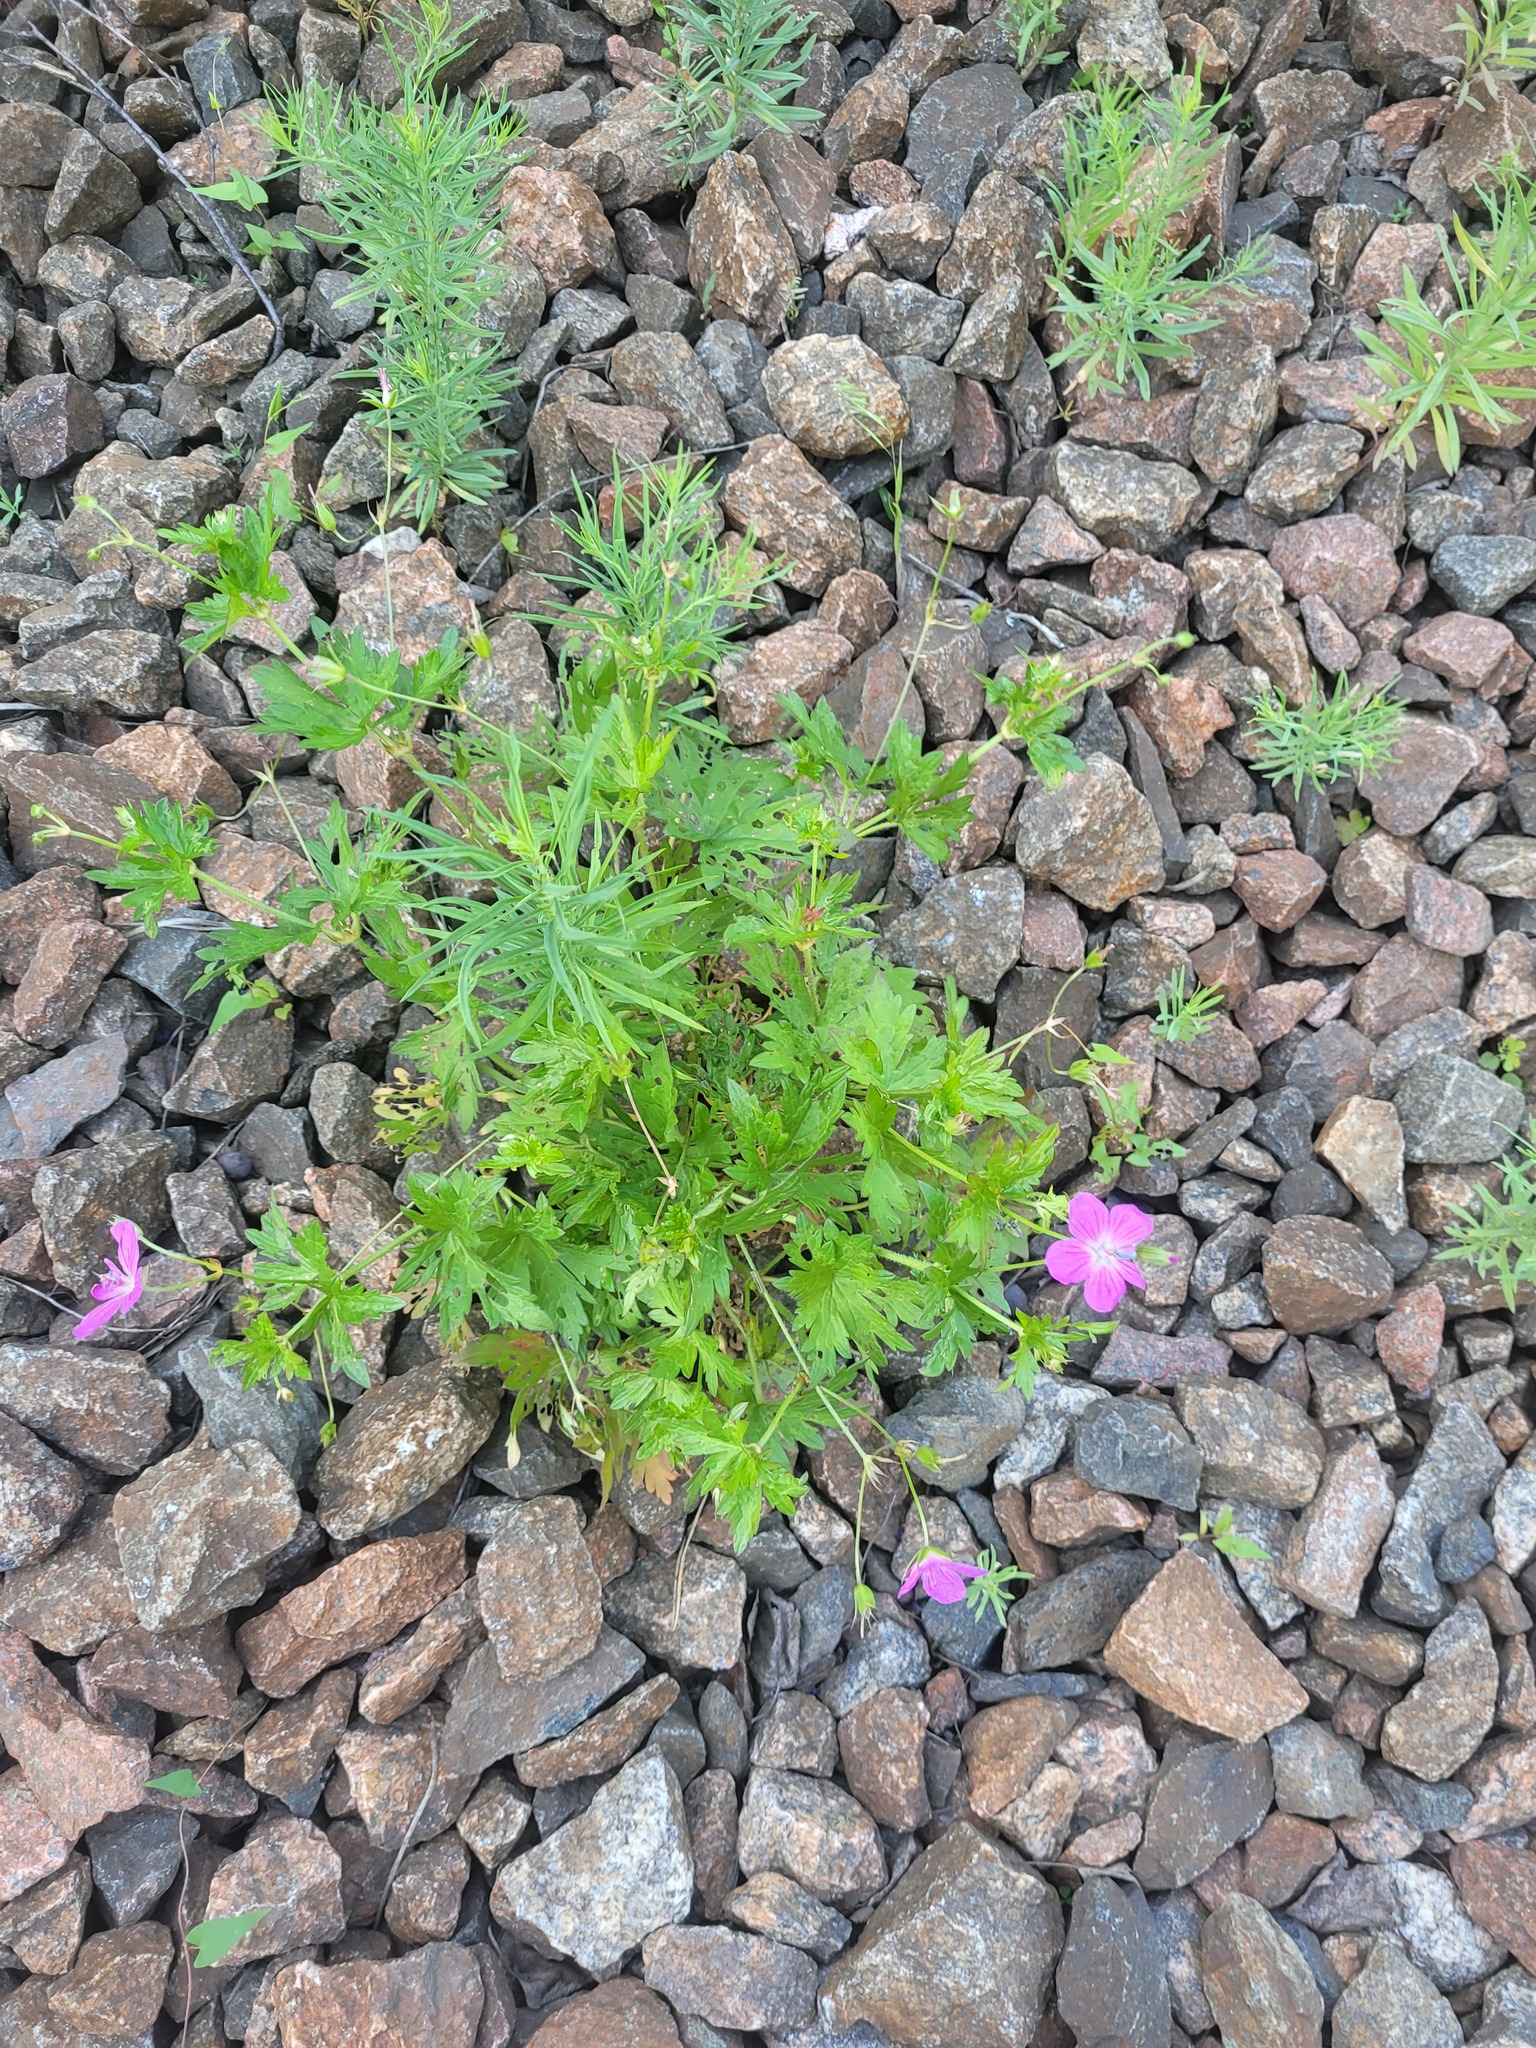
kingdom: Plantae
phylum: Tracheophyta
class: Magnoliopsida
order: Geraniales
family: Geraniaceae
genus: Geranium
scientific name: Geranium palustre
